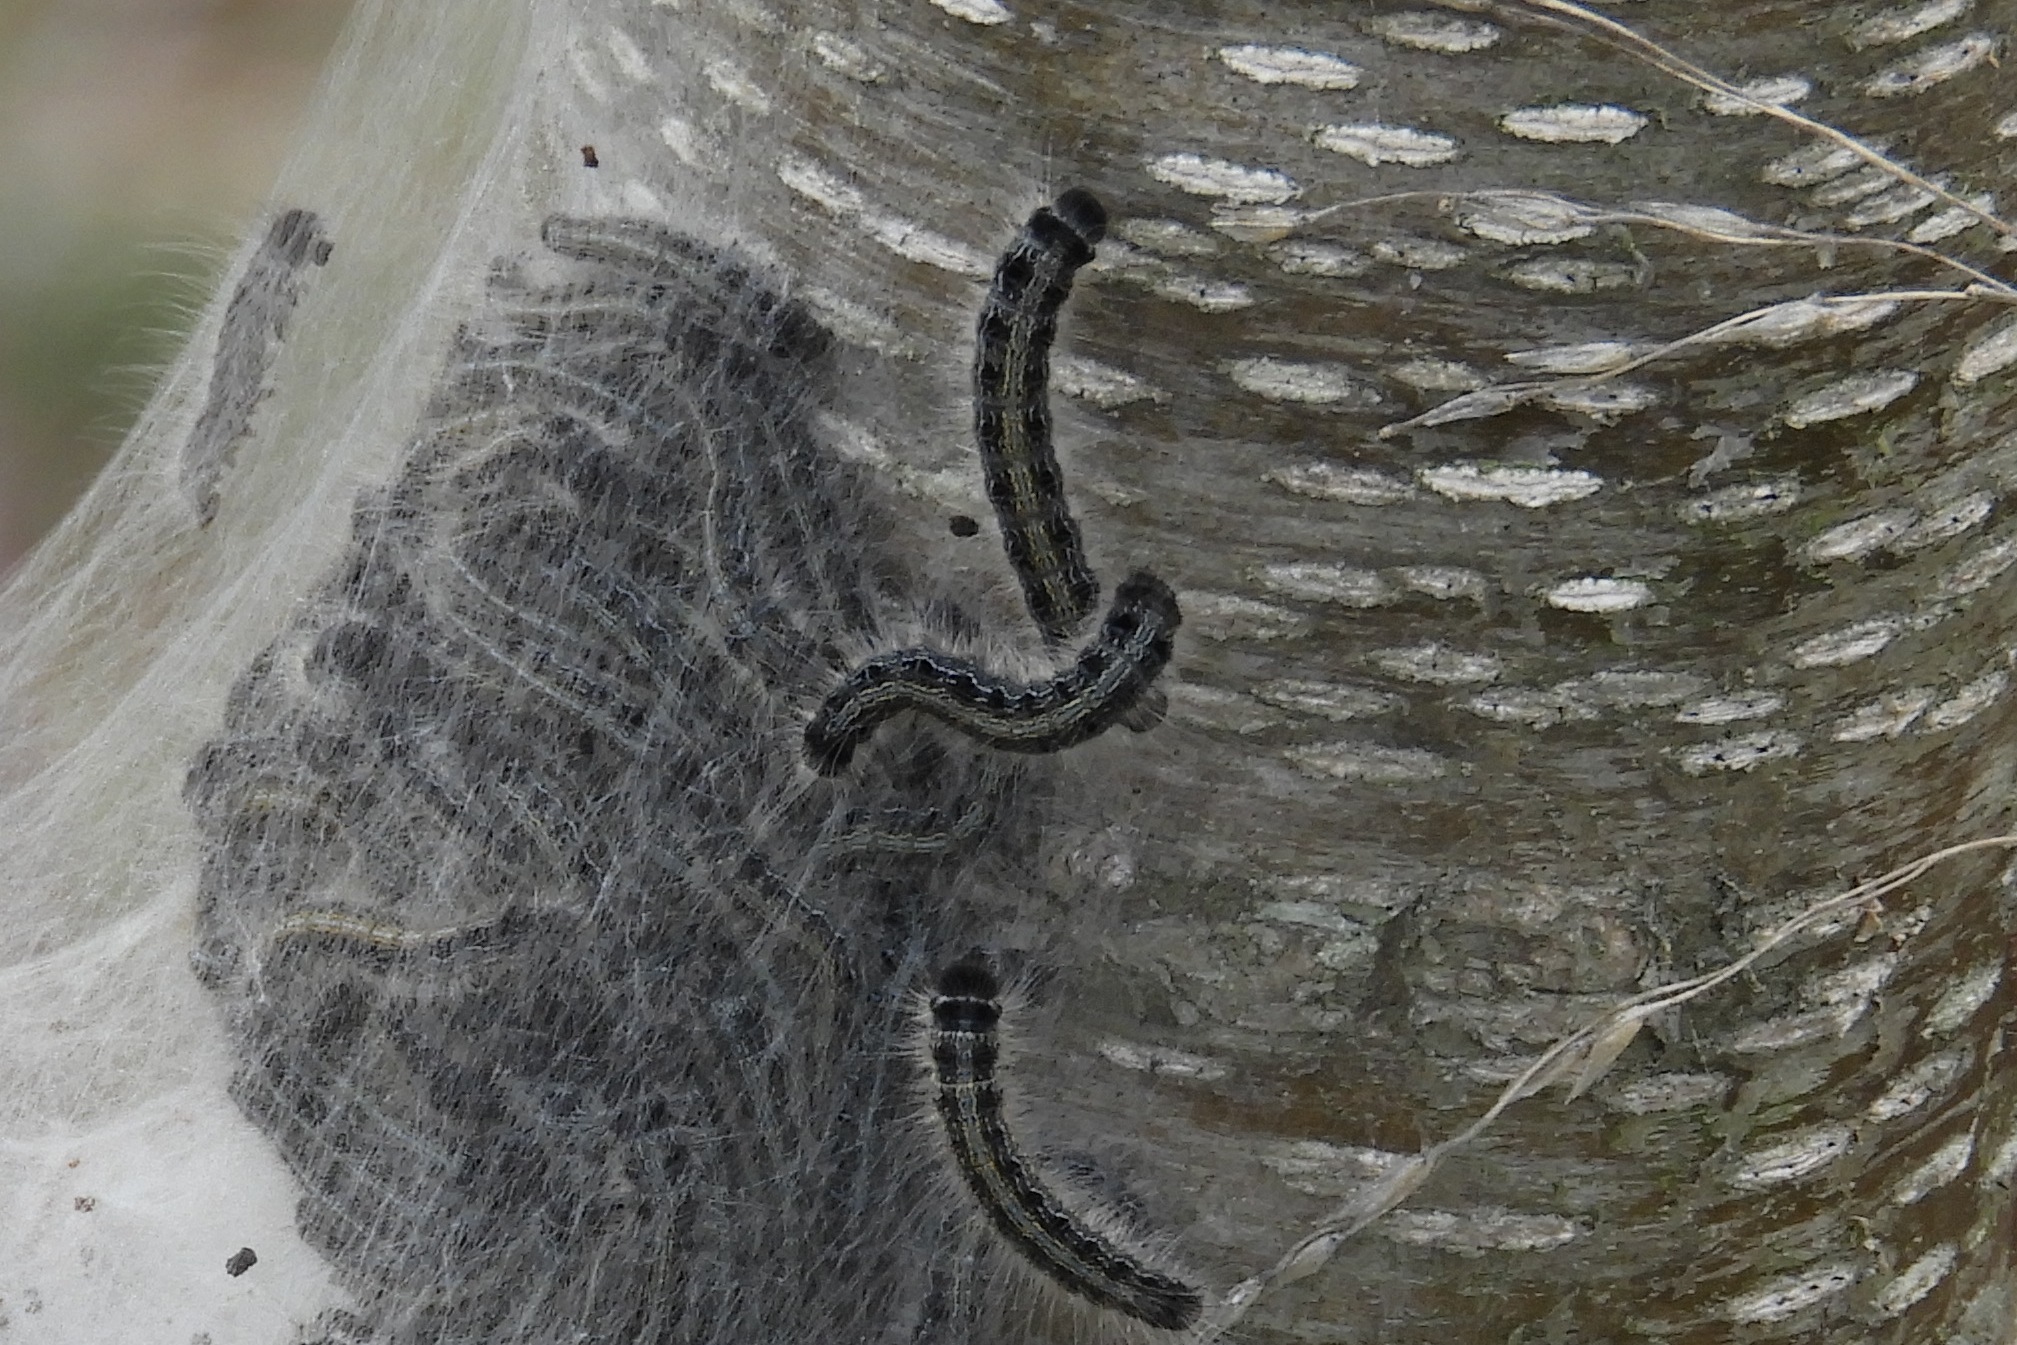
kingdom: Animalia
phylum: Arthropoda
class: Insecta
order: Lepidoptera
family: Lasiocampidae
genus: Malacosoma
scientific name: Malacosoma americana
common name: Eastern tent caterpillar moth
